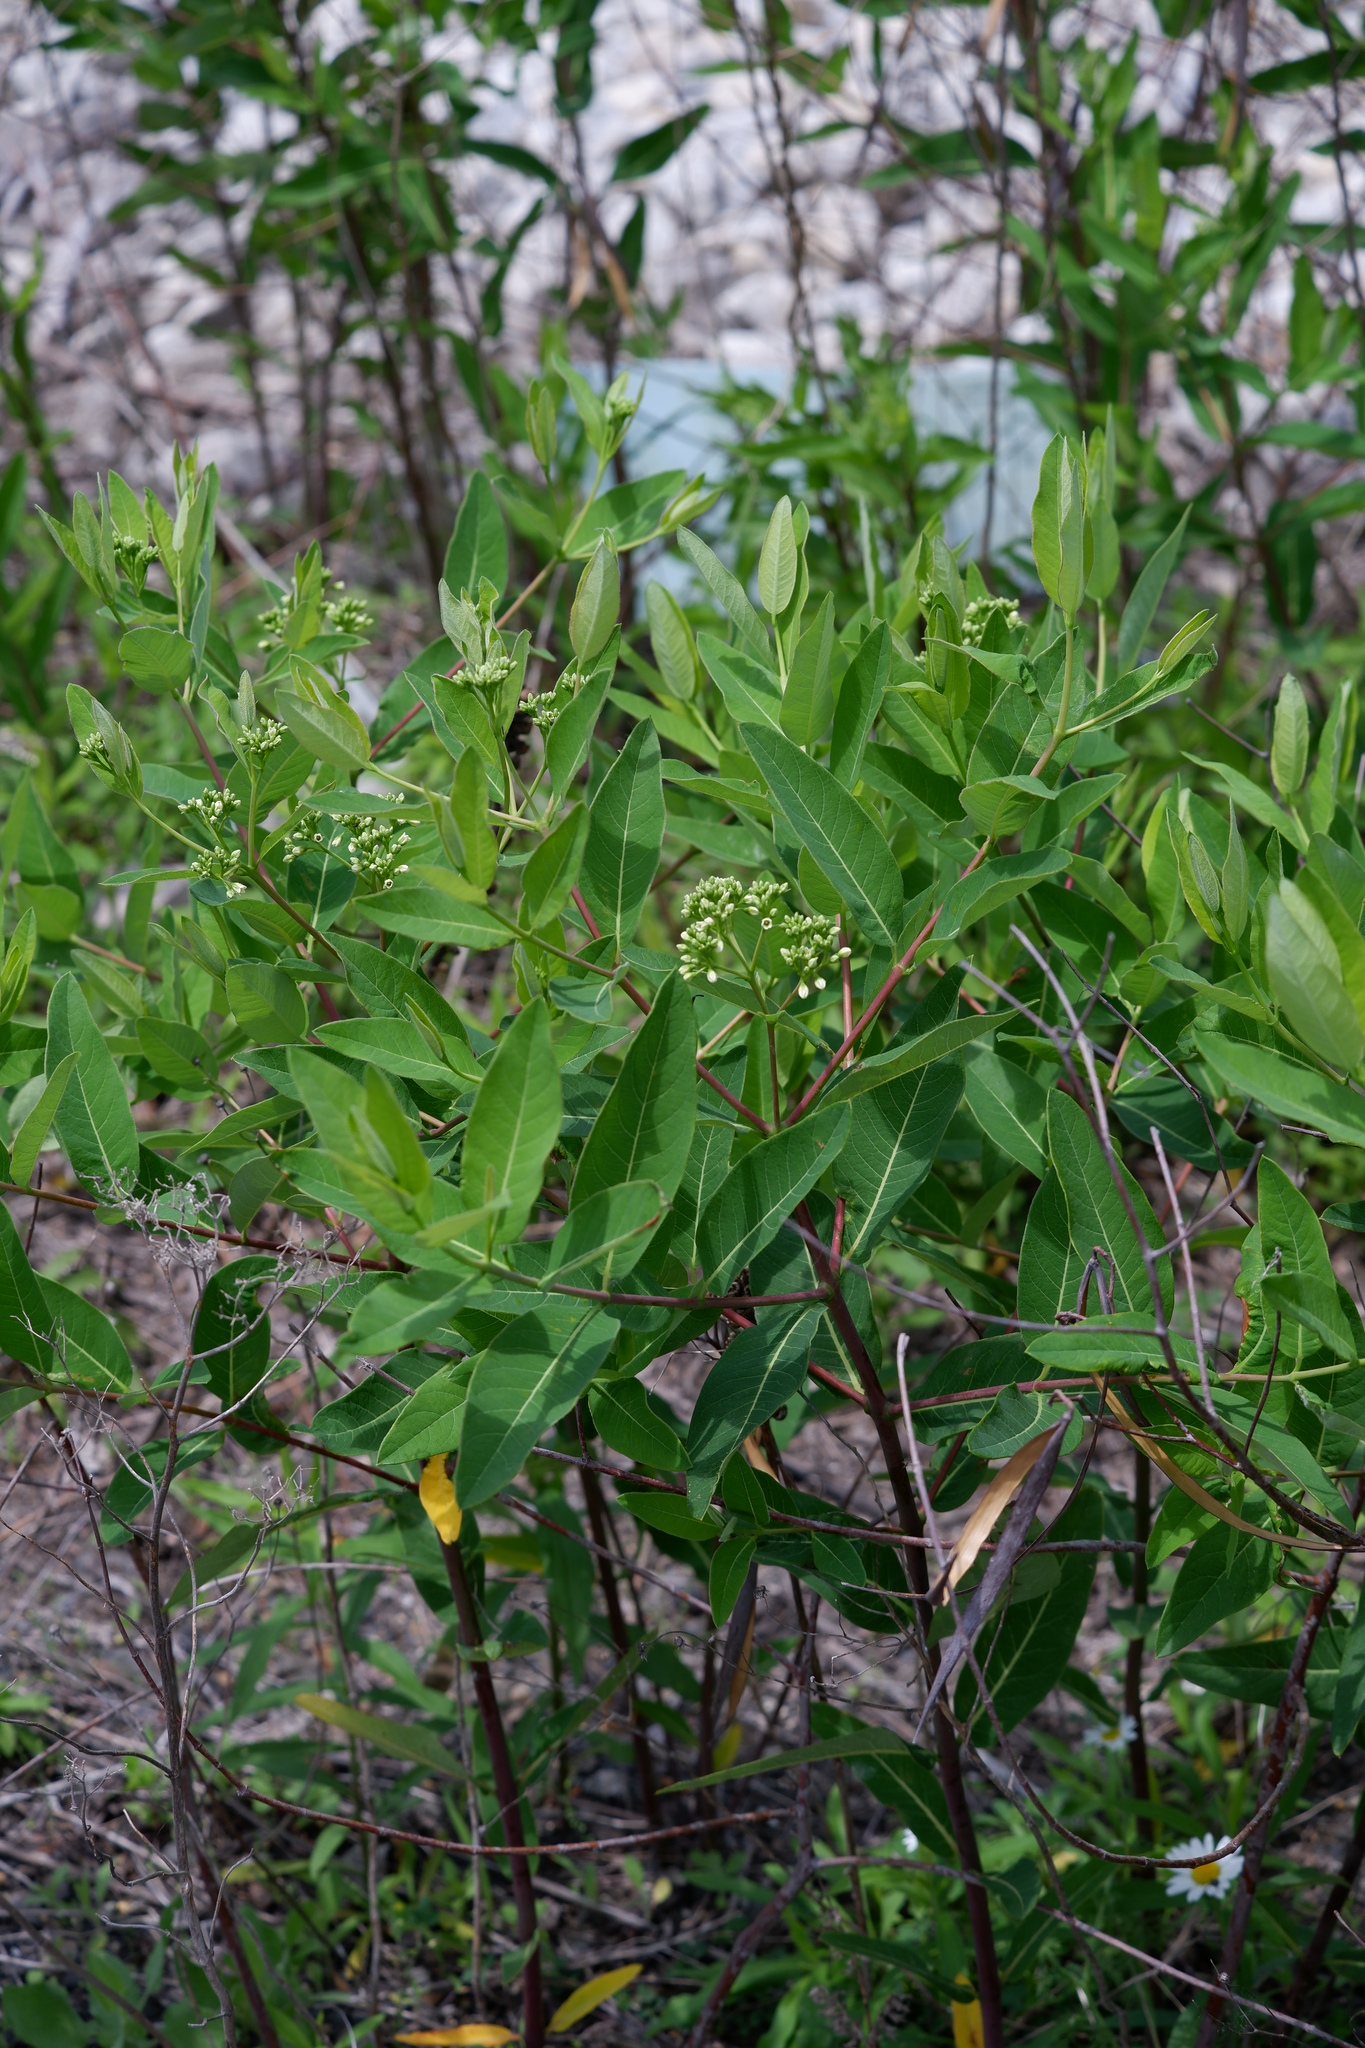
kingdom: Plantae
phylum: Tracheophyta
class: Magnoliopsida
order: Gentianales
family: Apocynaceae
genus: Apocynum
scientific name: Apocynum cannabinum
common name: Hemp dogbane
